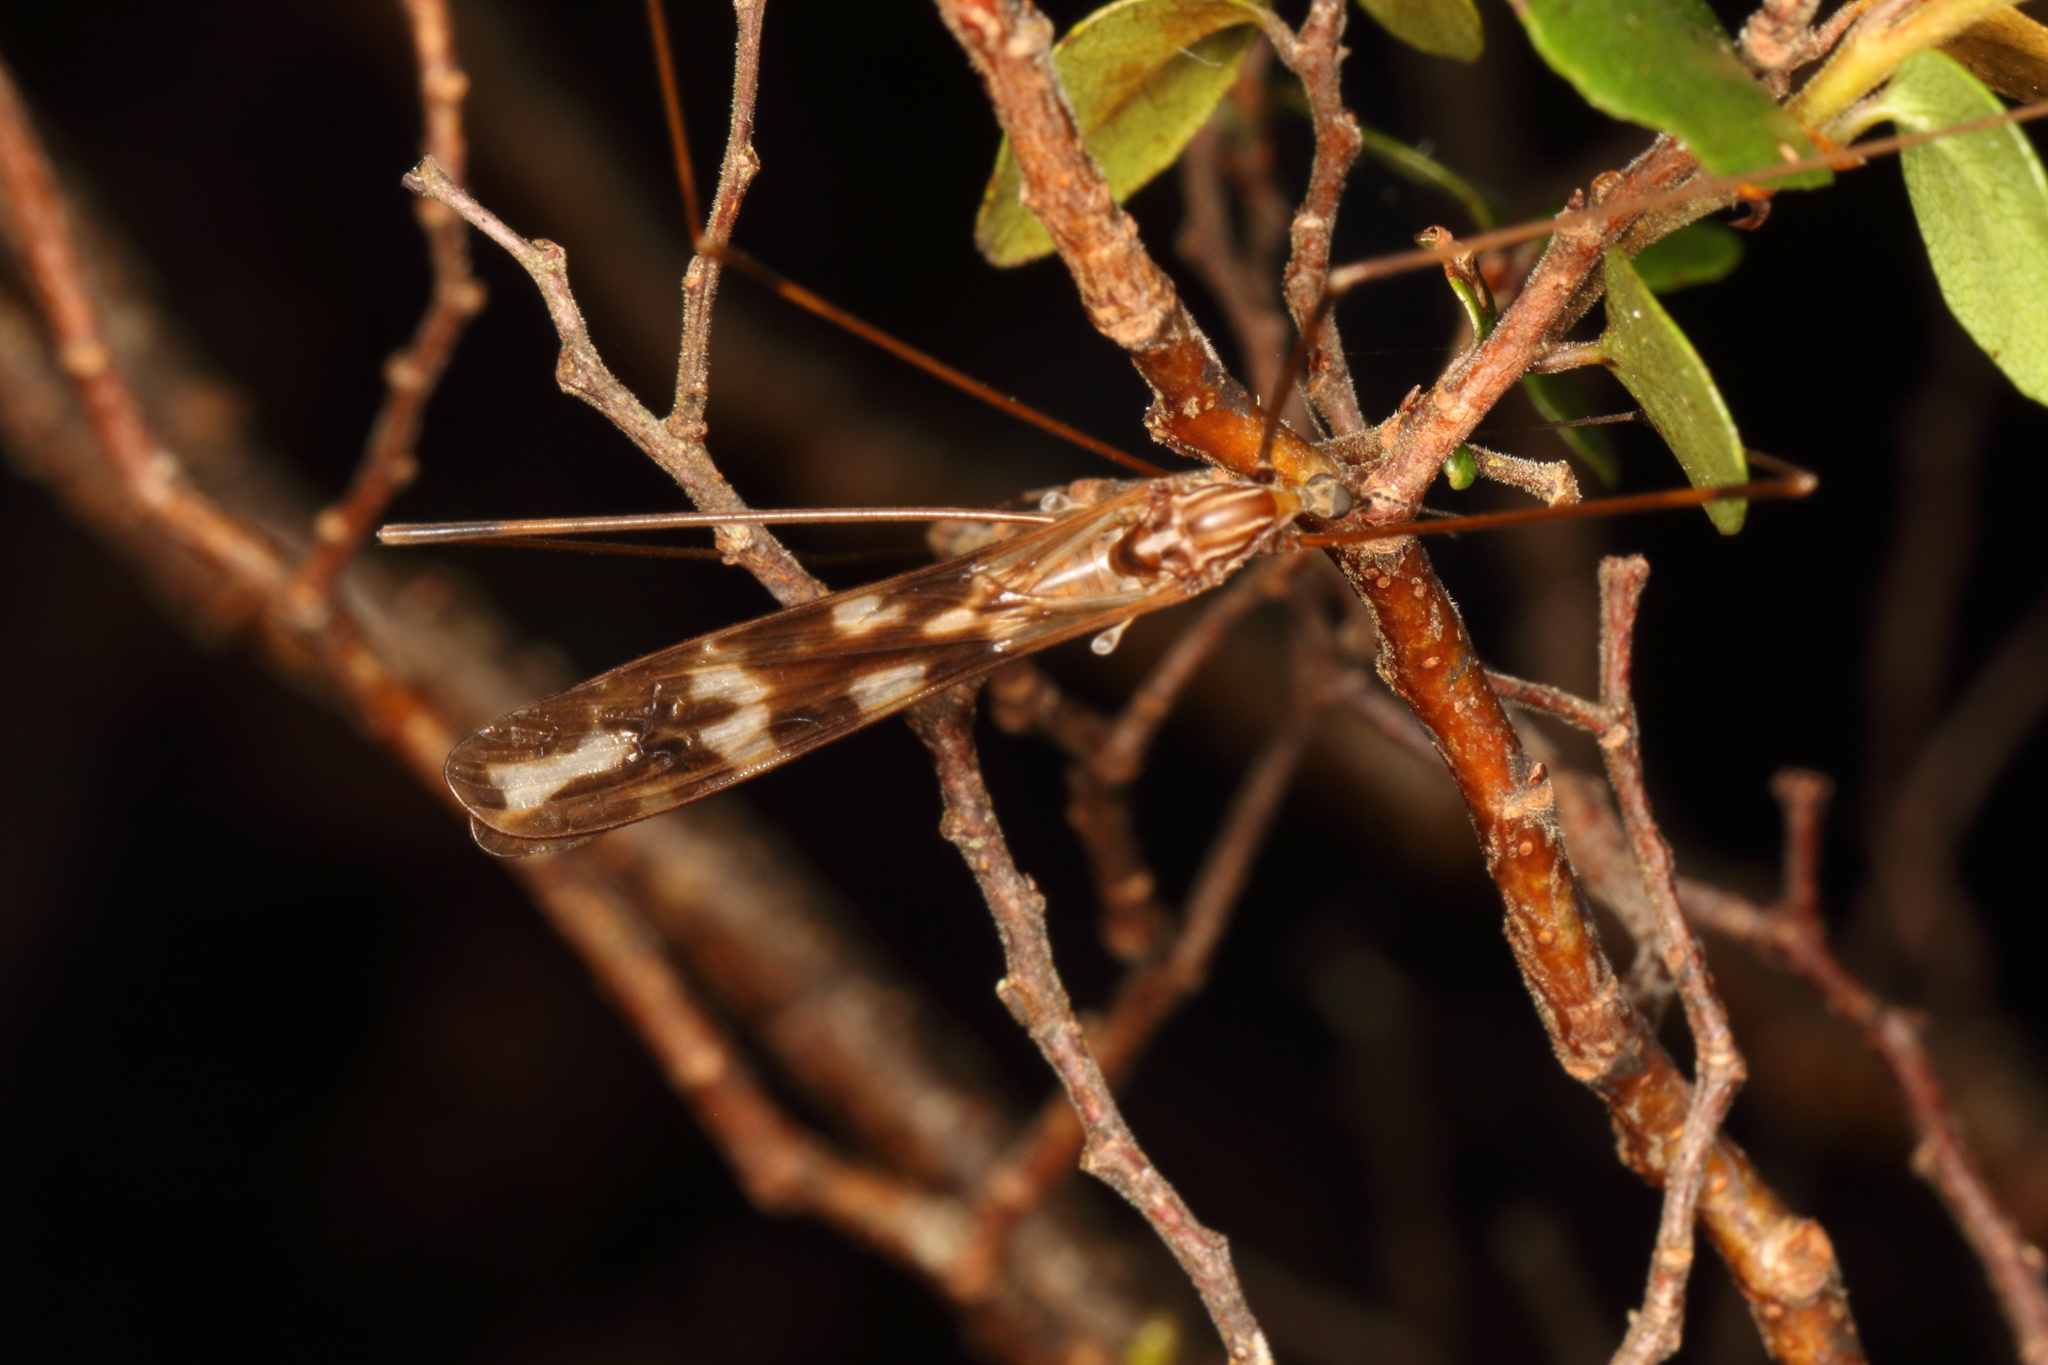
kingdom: Animalia
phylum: Arthropoda
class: Insecta
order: Diptera
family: Limoniidae
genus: Discobola
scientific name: Discobola dohrni
